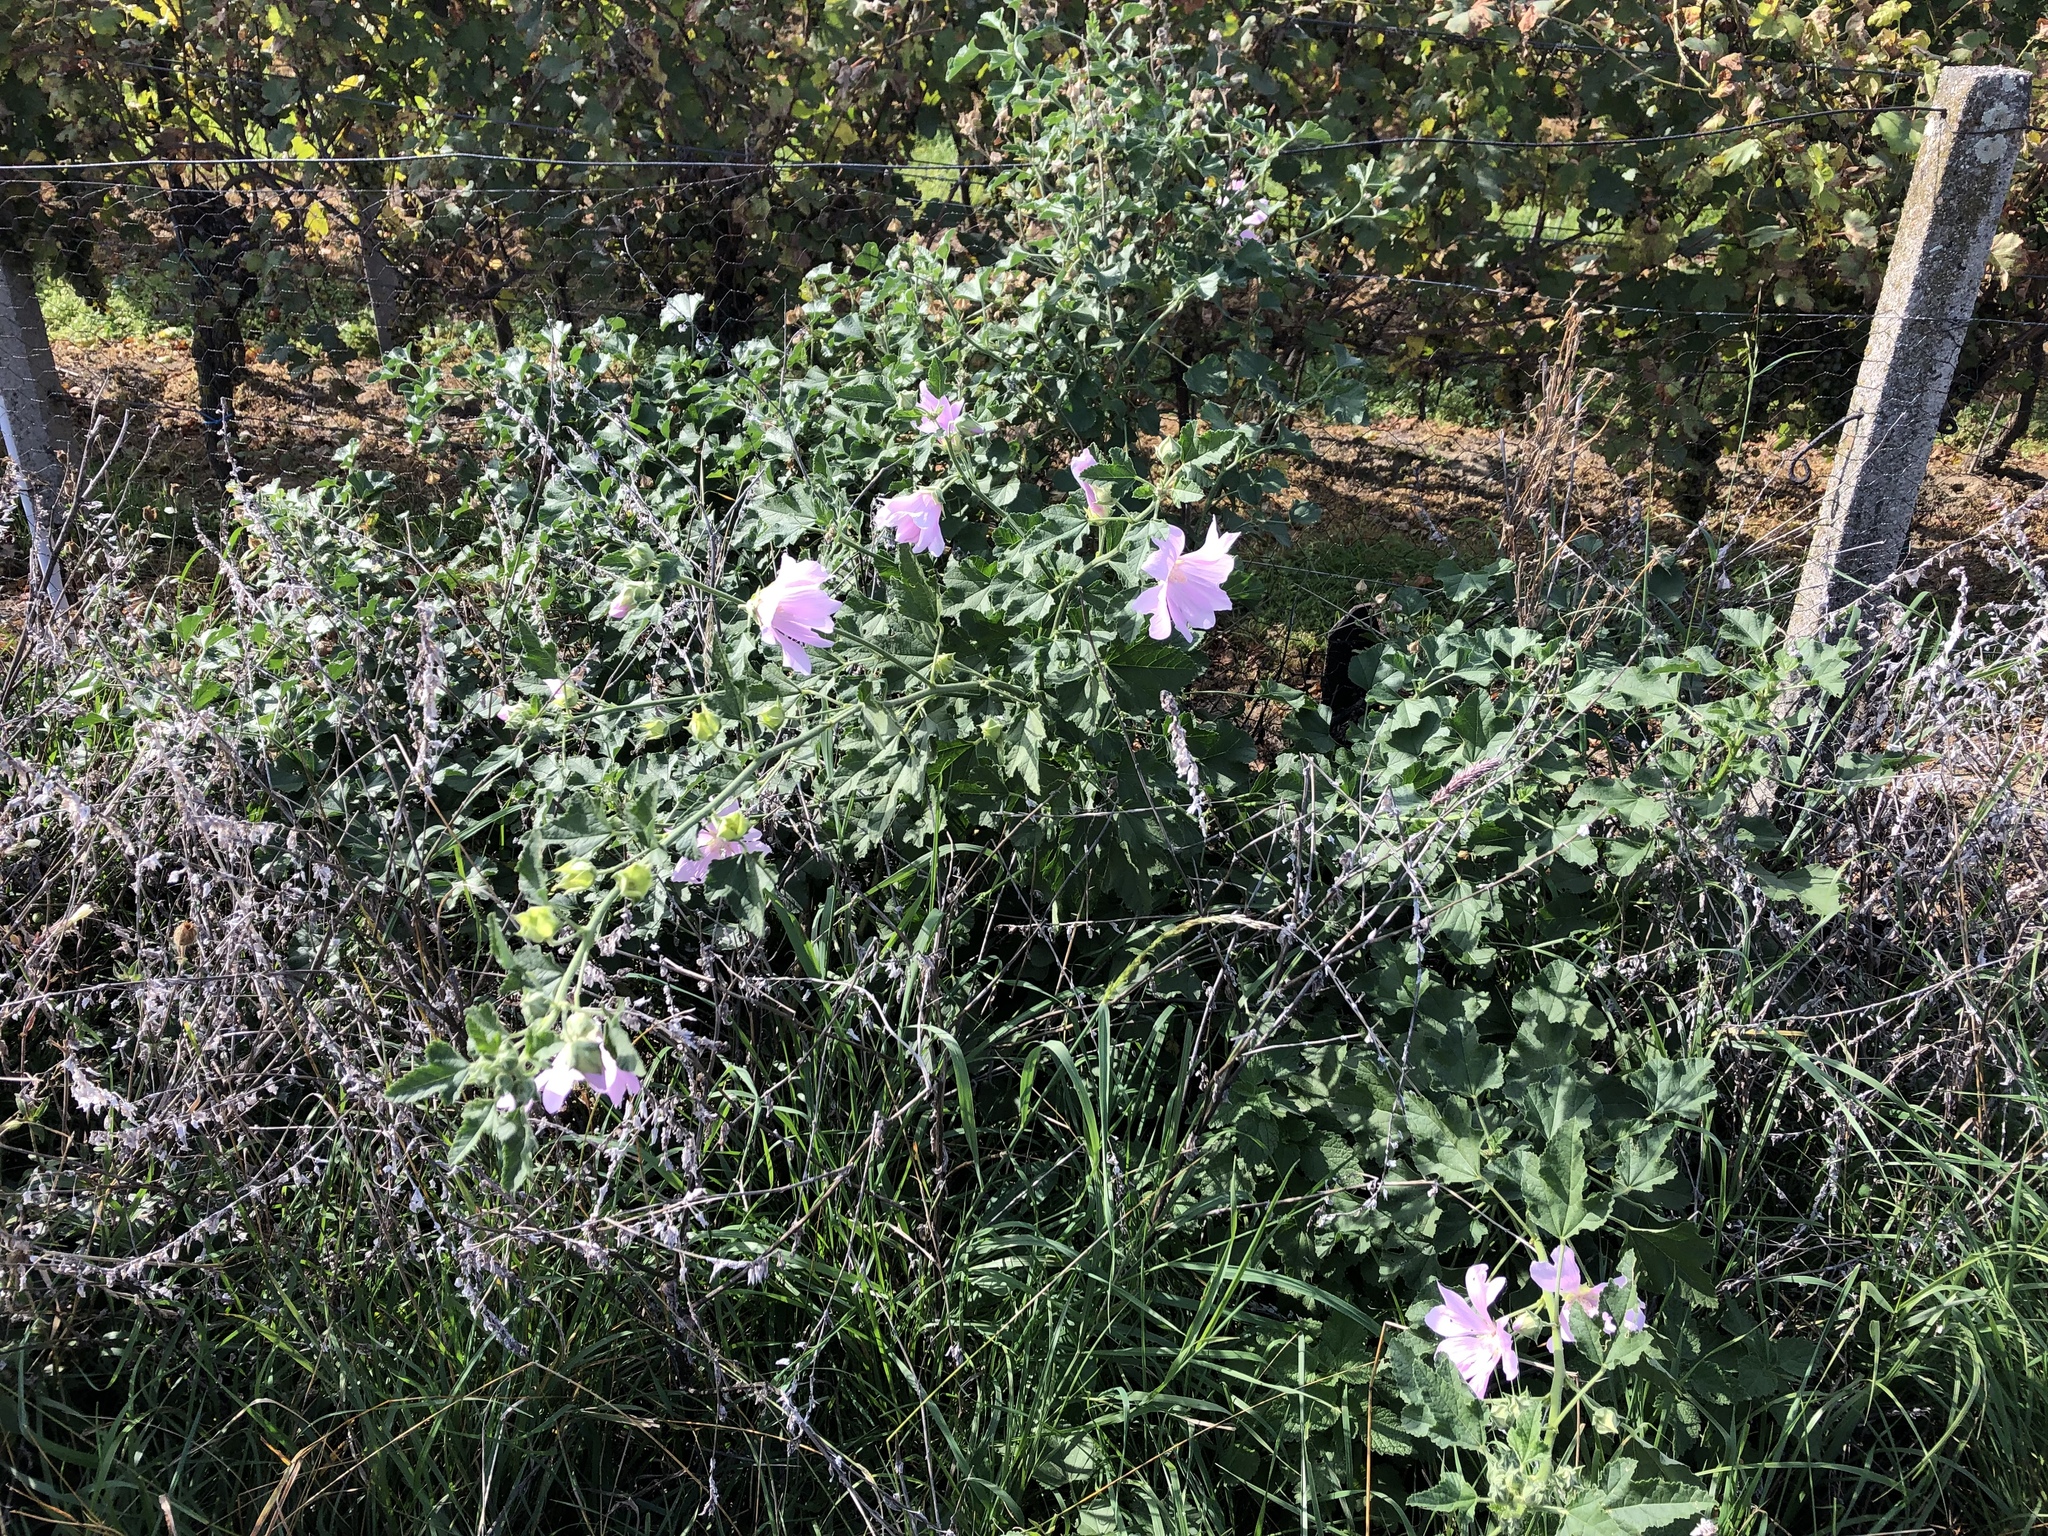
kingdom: Plantae
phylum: Tracheophyta
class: Magnoliopsida
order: Malvales
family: Malvaceae
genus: Malva
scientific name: Malva thuringiaca
